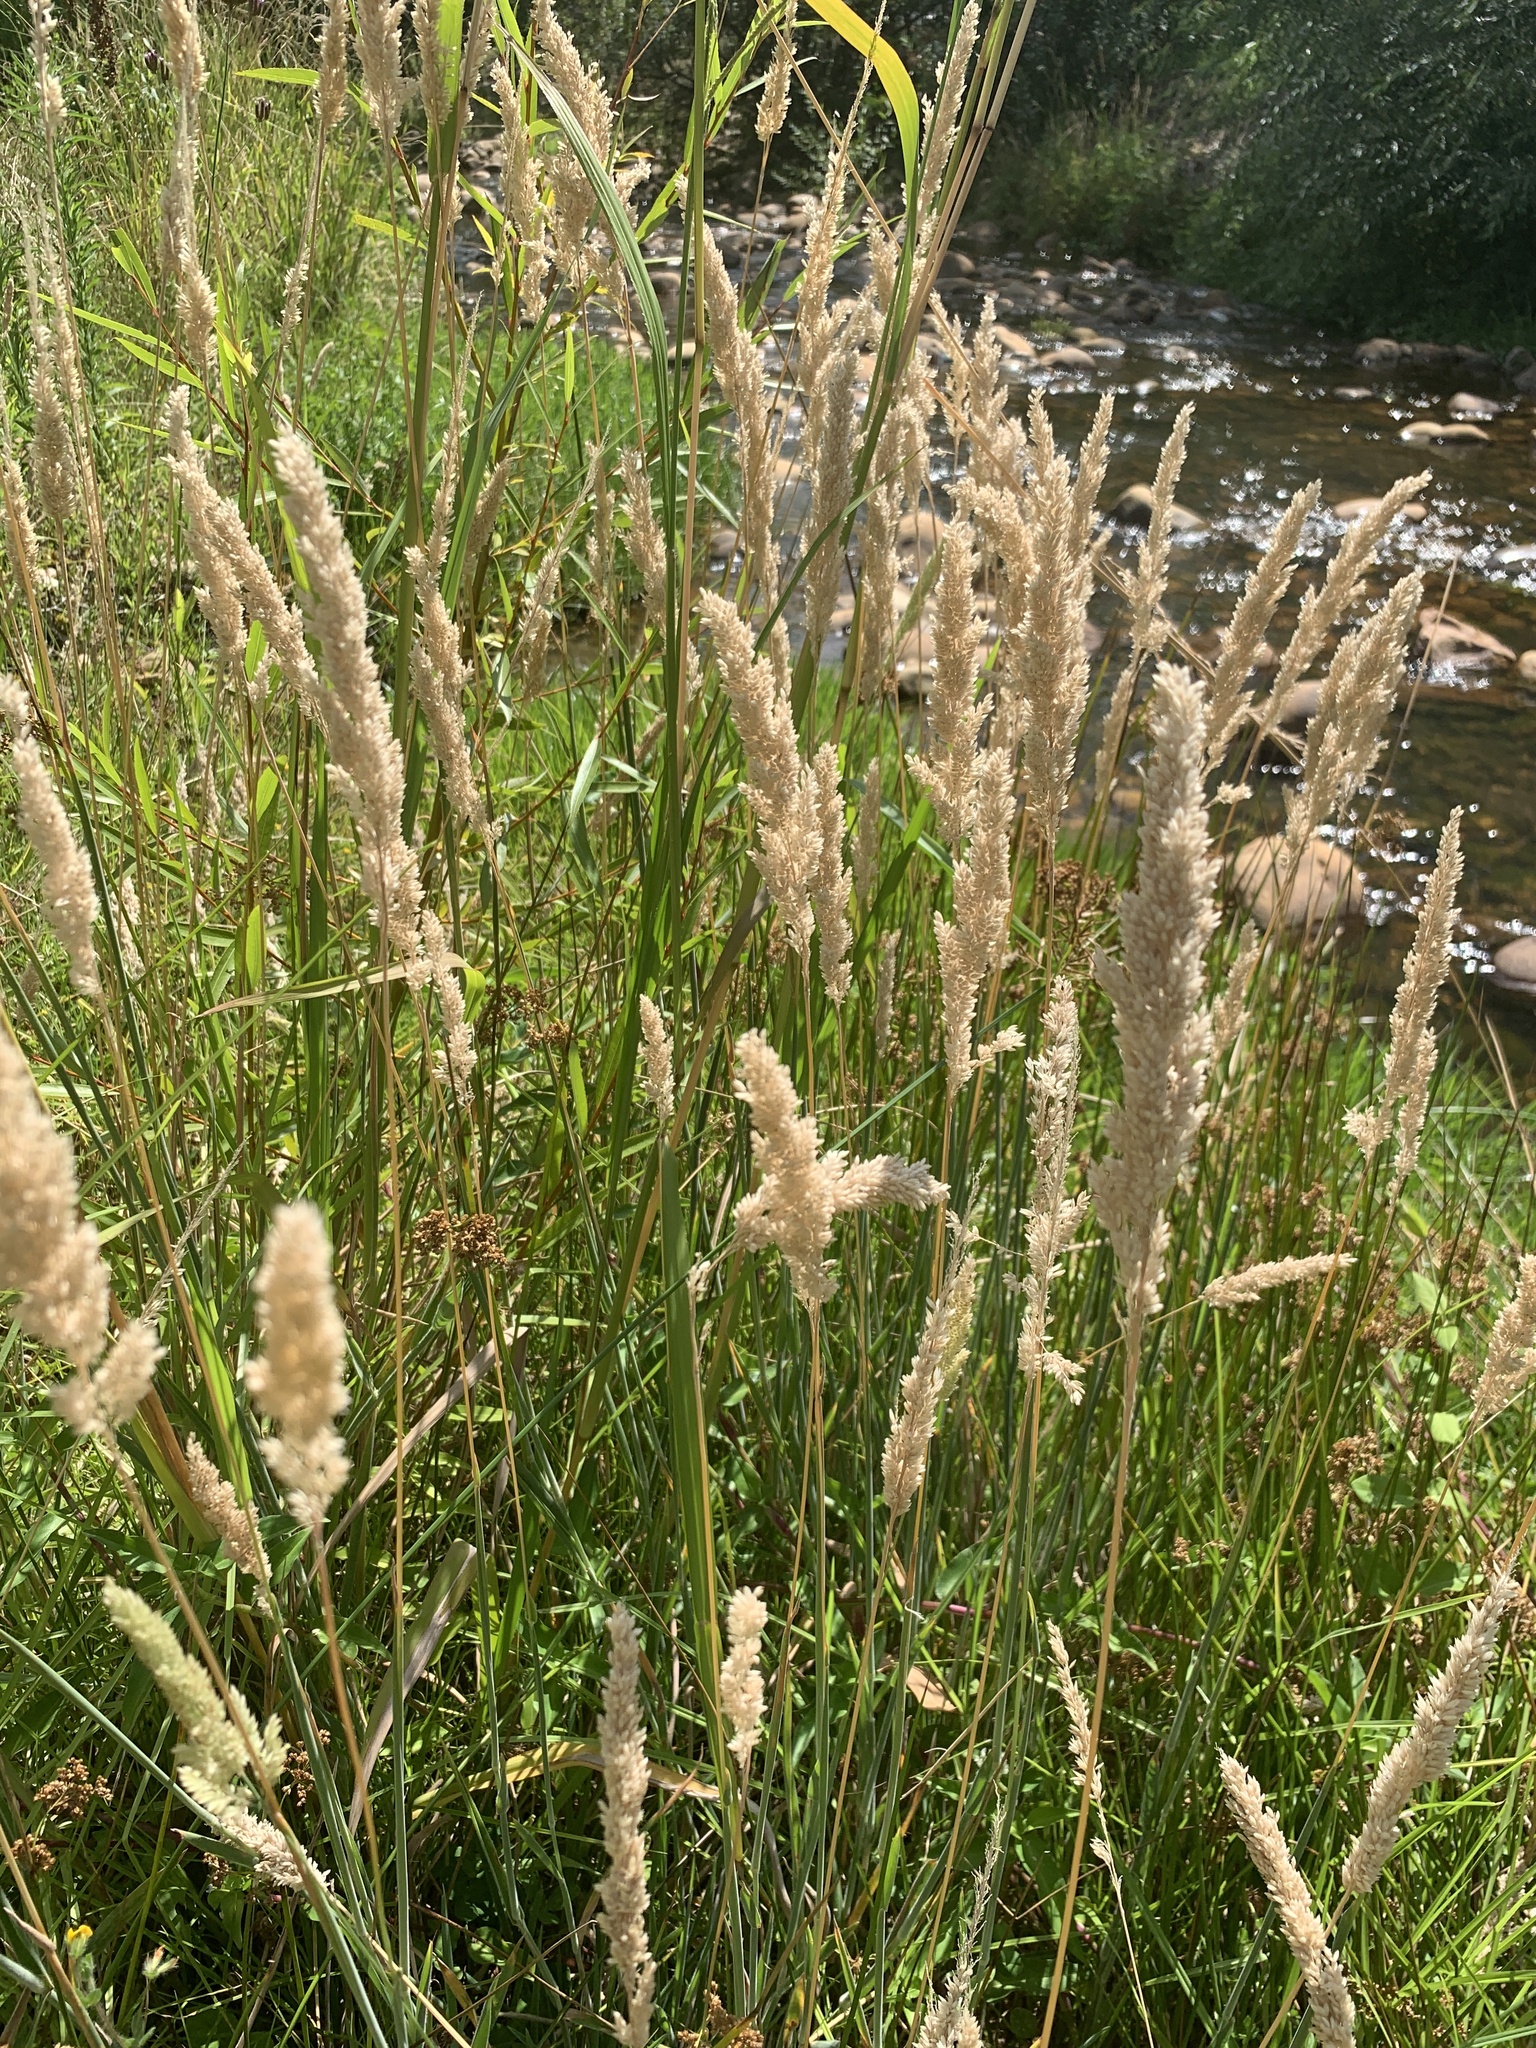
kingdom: Plantae
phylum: Tracheophyta
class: Liliopsida
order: Poales
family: Poaceae
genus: Holcus
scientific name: Holcus lanatus
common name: Yorkshire-fog
